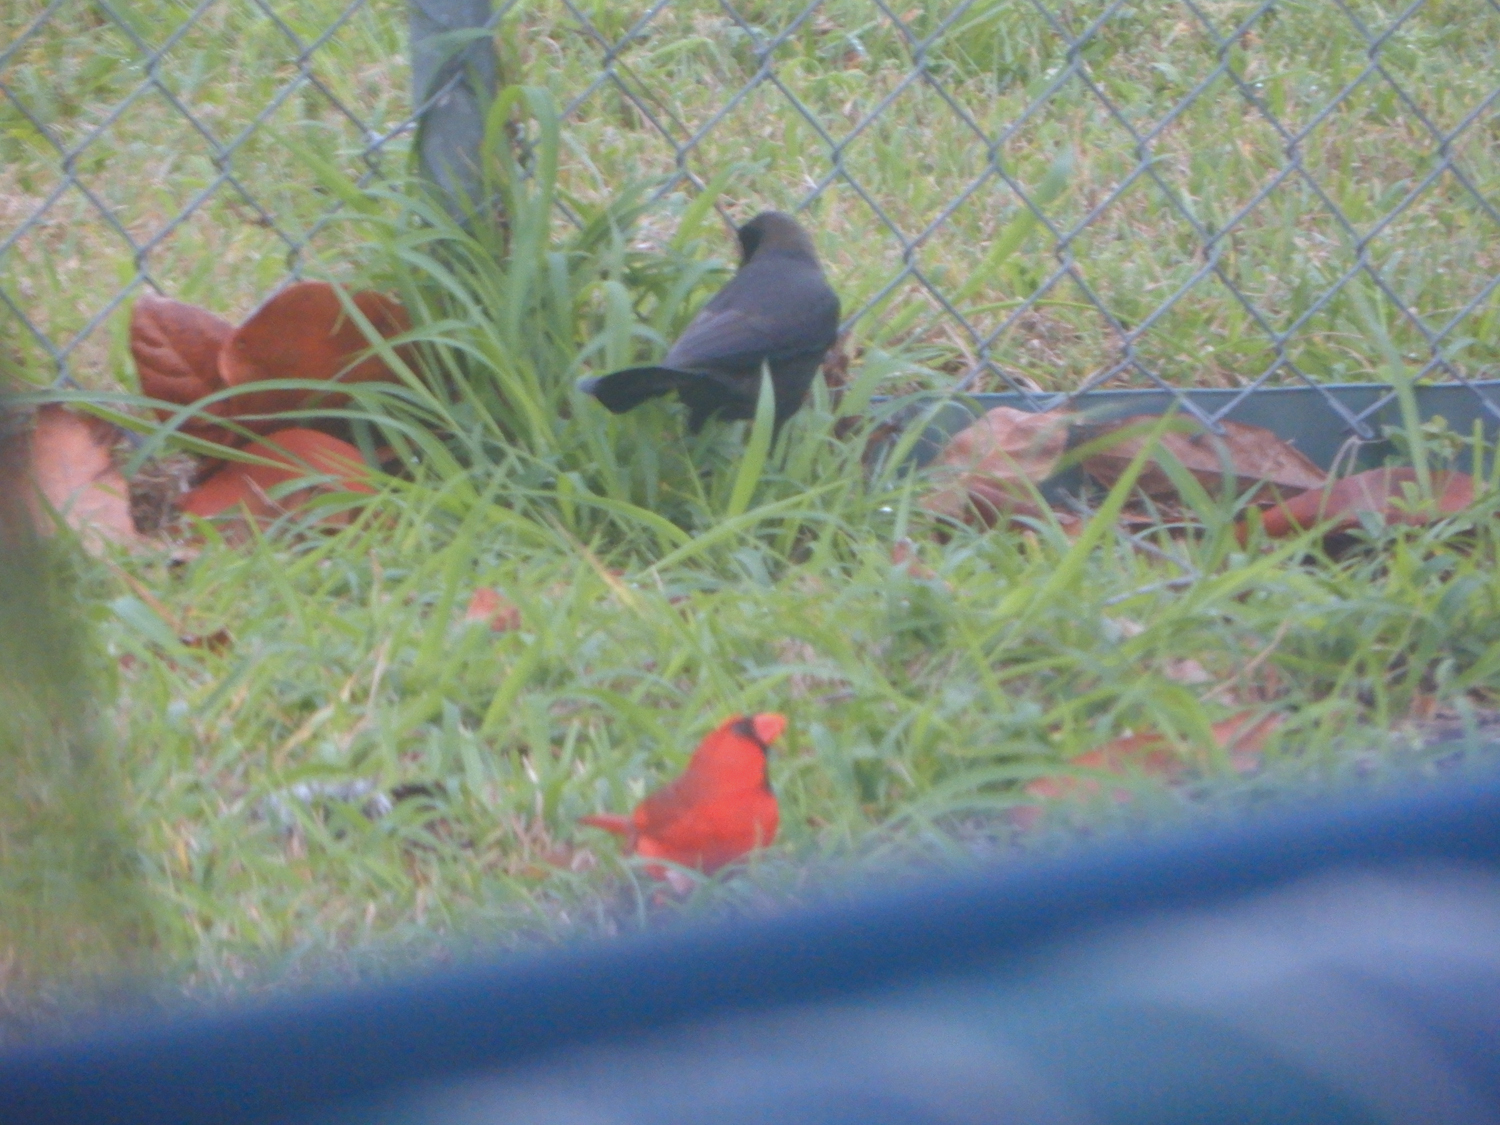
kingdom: Animalia
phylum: Chordata
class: Aves
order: Passeriformes
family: Cardinalidae
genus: Cardinalis
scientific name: Cardinalis cardinalis
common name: Northern cardinal
